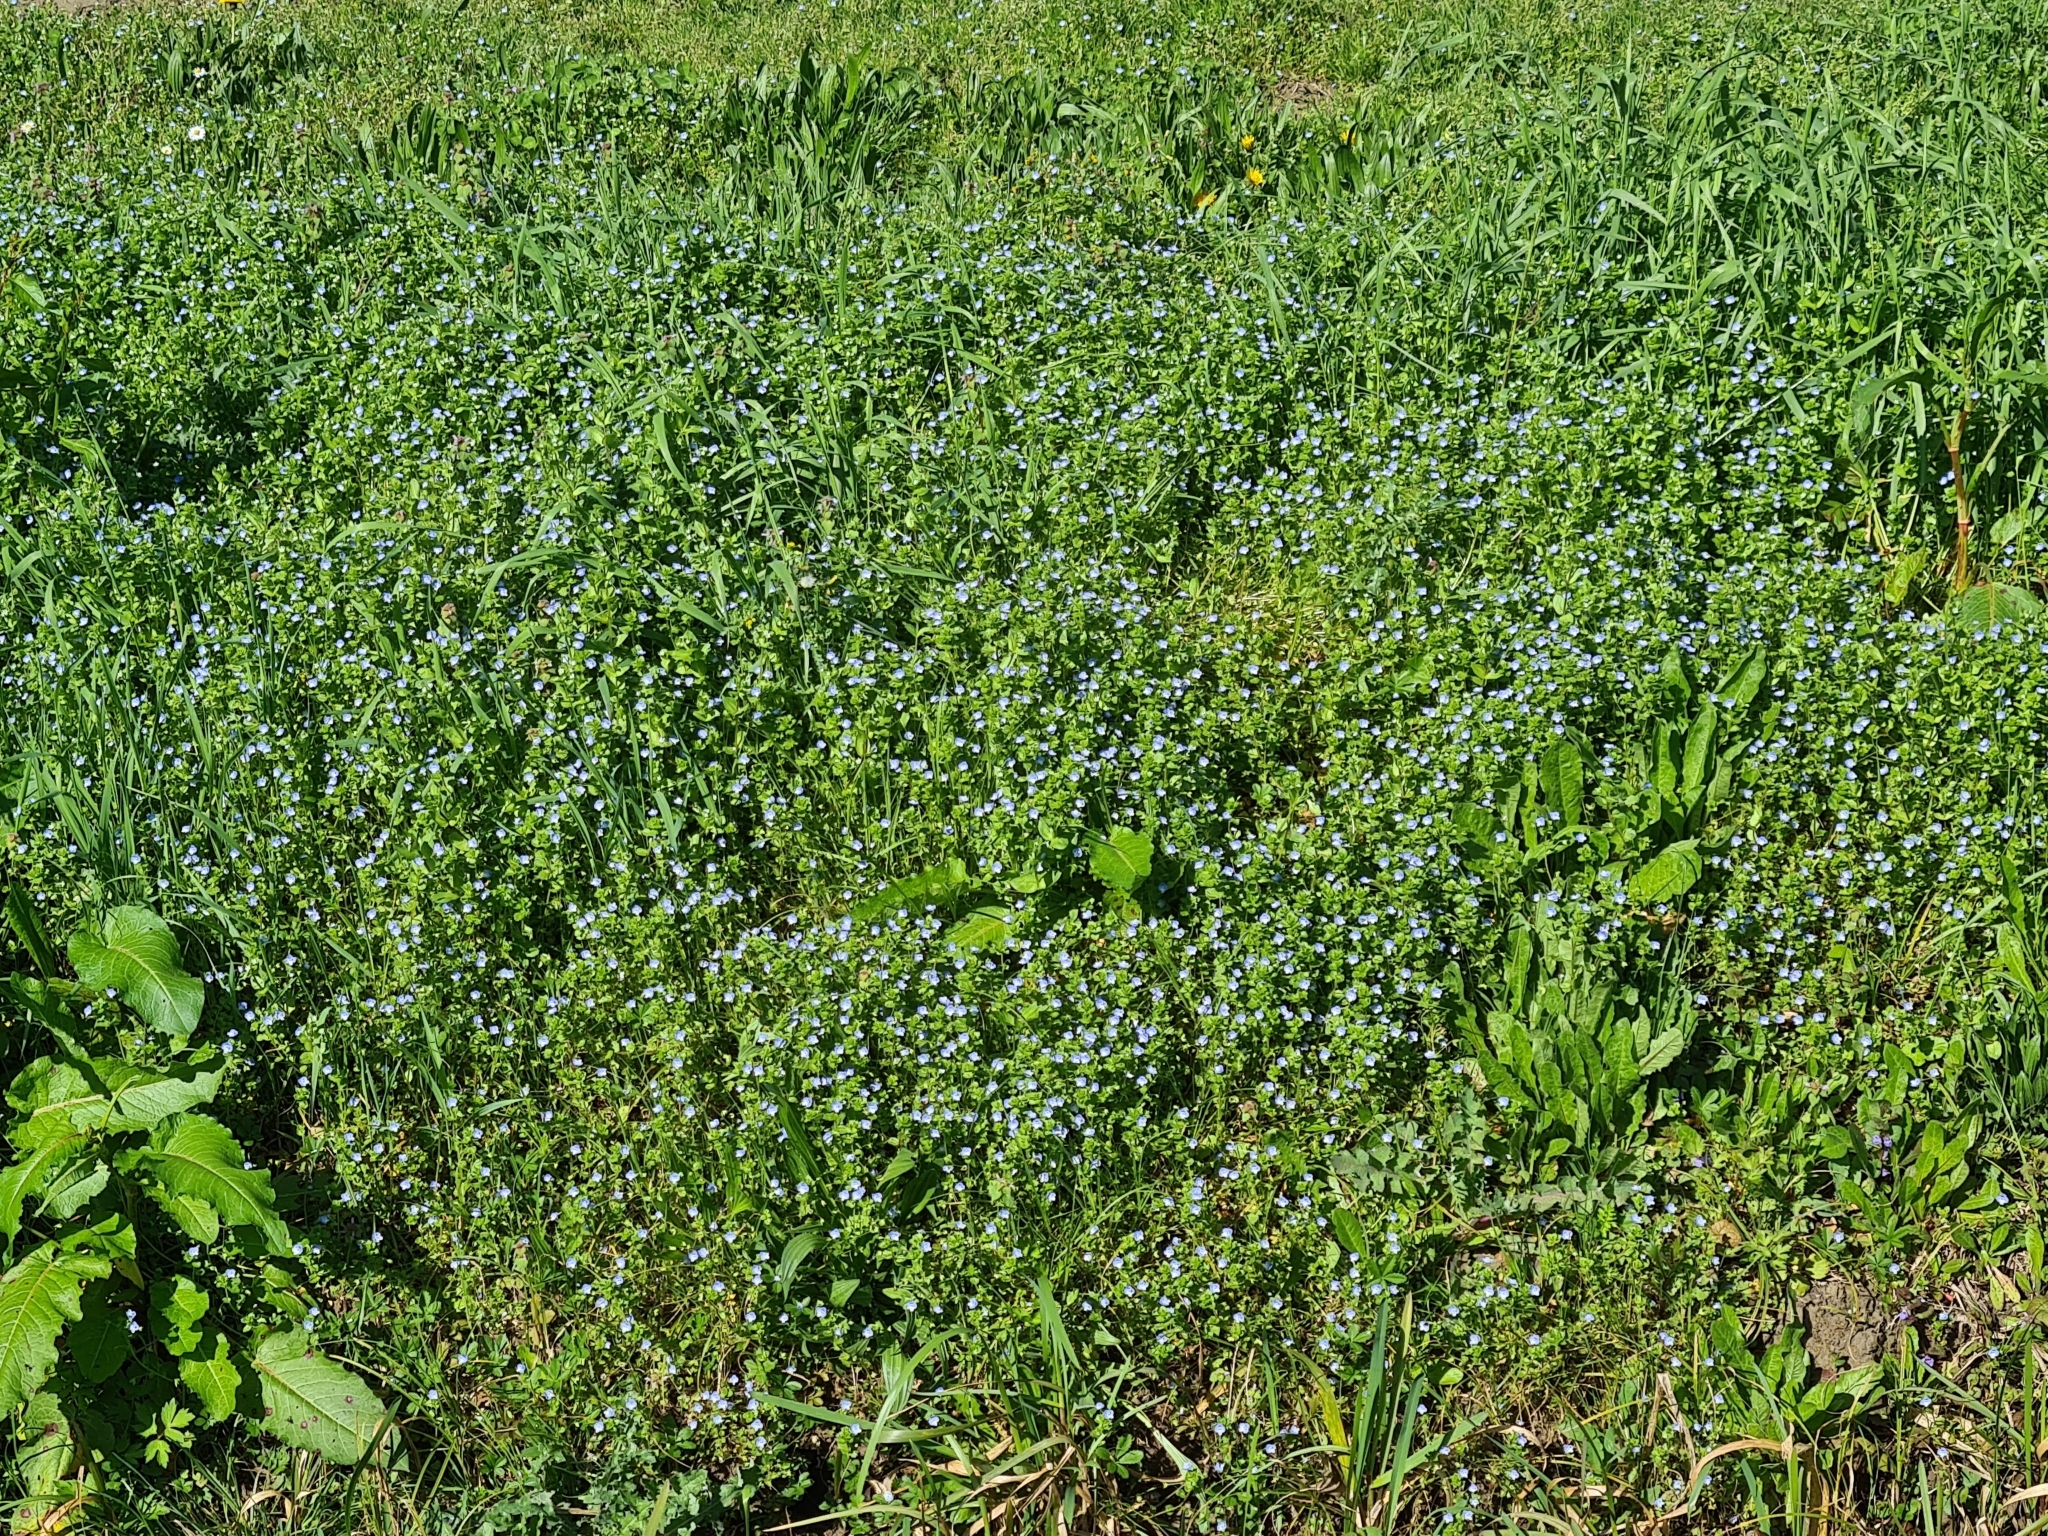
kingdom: Plantae
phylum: Tracheophyta
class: Magnoliopsida
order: Lamiales
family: Plantaginaceae
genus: Veronica
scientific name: Veronica persica
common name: Common field-speedwell
